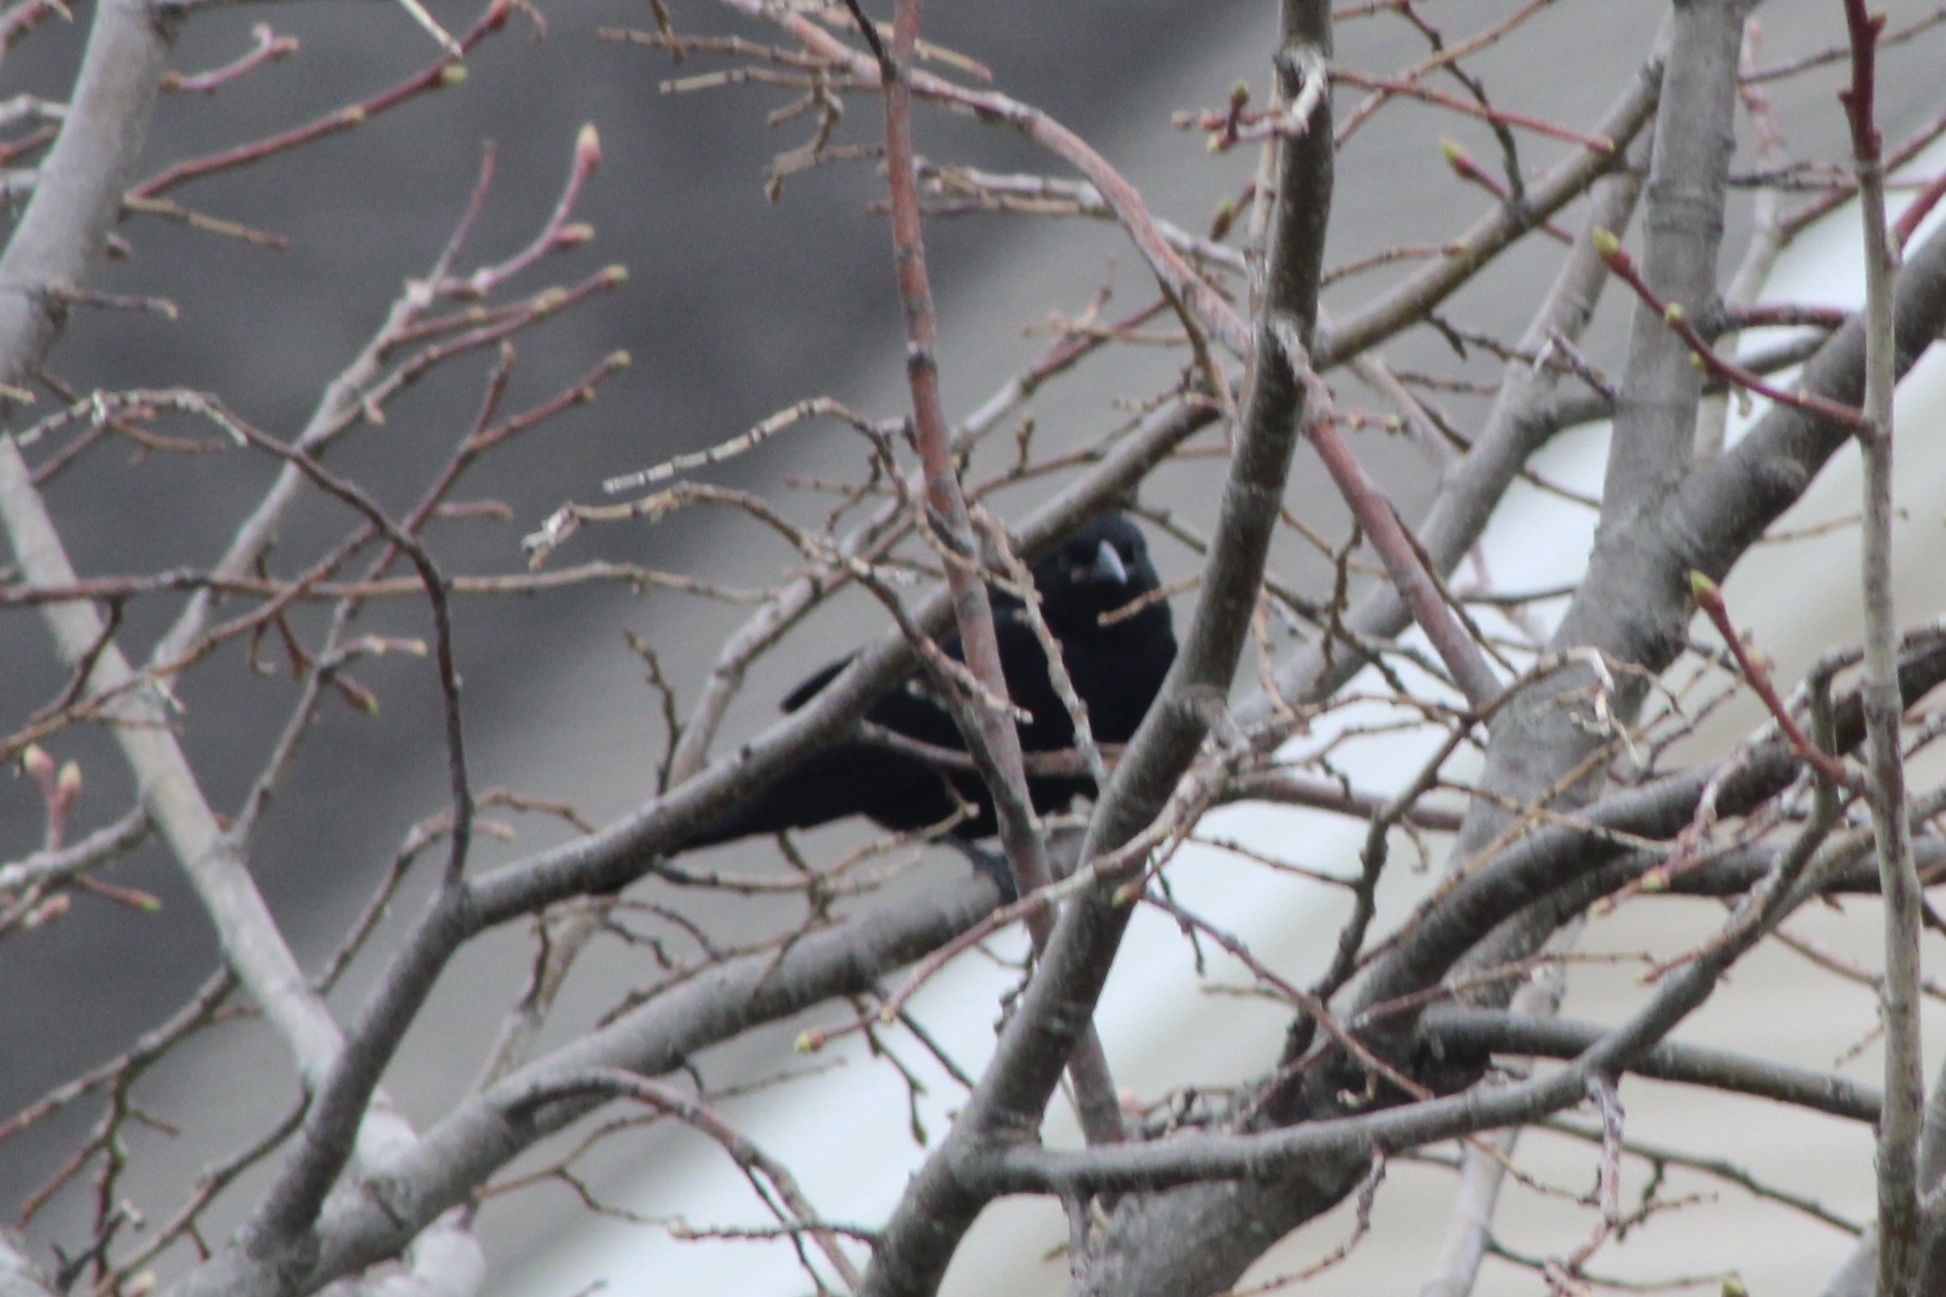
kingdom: Animalia
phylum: Chordata
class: Aves
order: Passeriformes
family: Icteridae
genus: Agelaius
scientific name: Agelaius phoeniceus
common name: Red-winged blackbird
